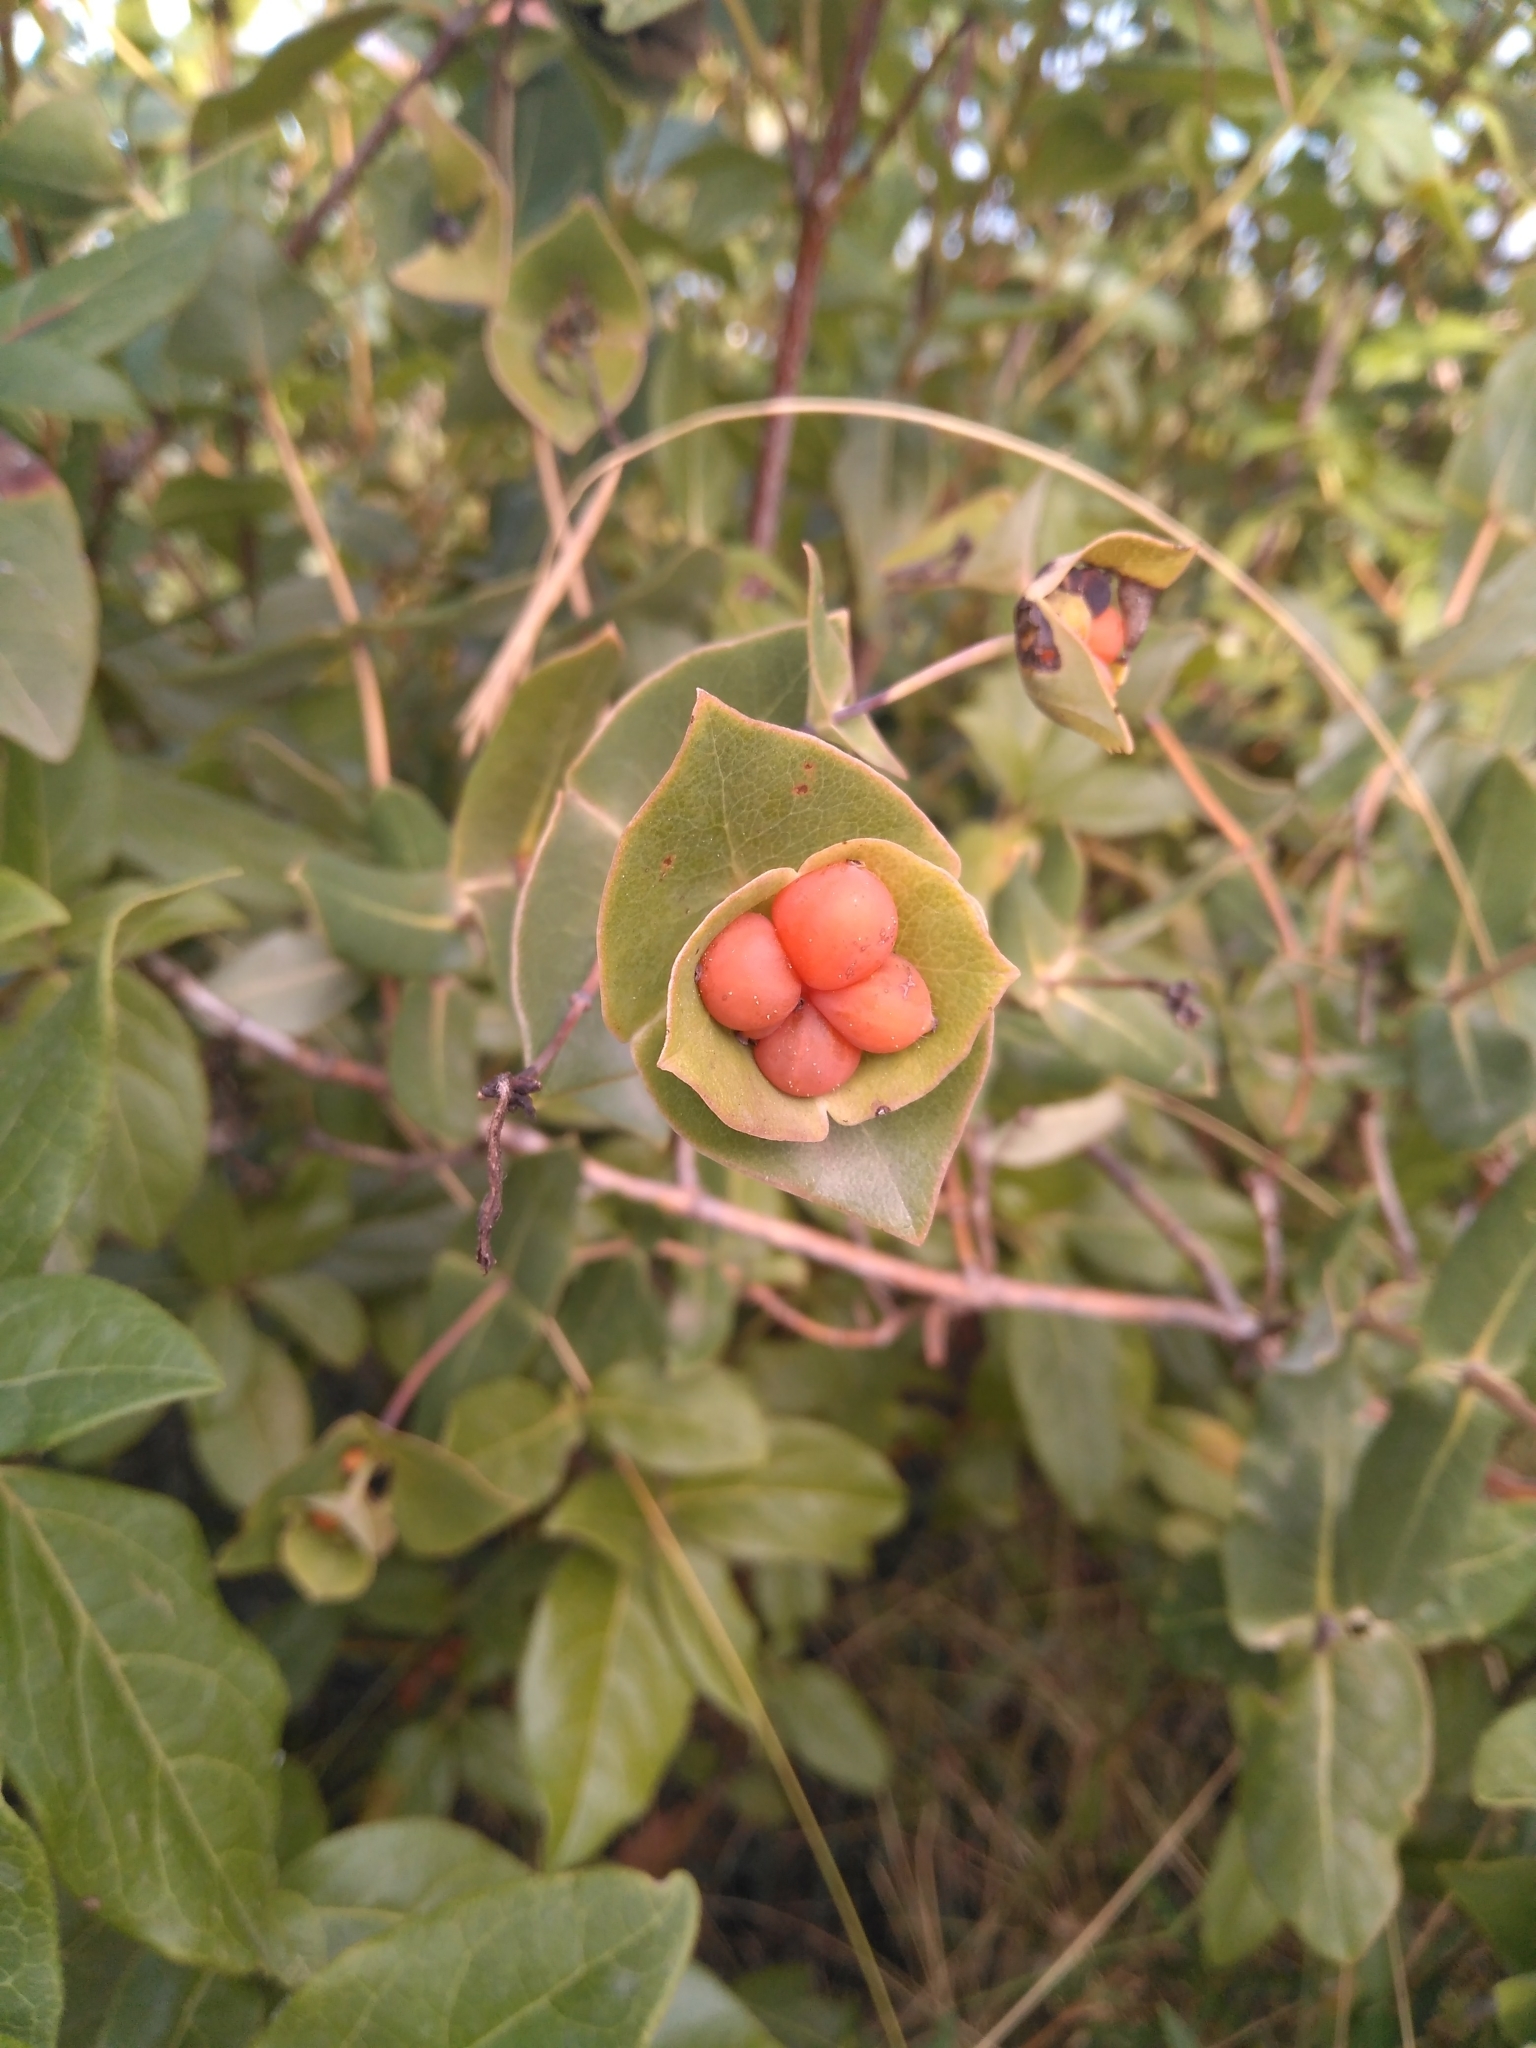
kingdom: Plantae
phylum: Tracheophyta
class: Magnoliopsida
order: Dipsacales
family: Caprifoliaceae
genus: Lonicera
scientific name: Lonicera implexa
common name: Minorca honeysuckle
